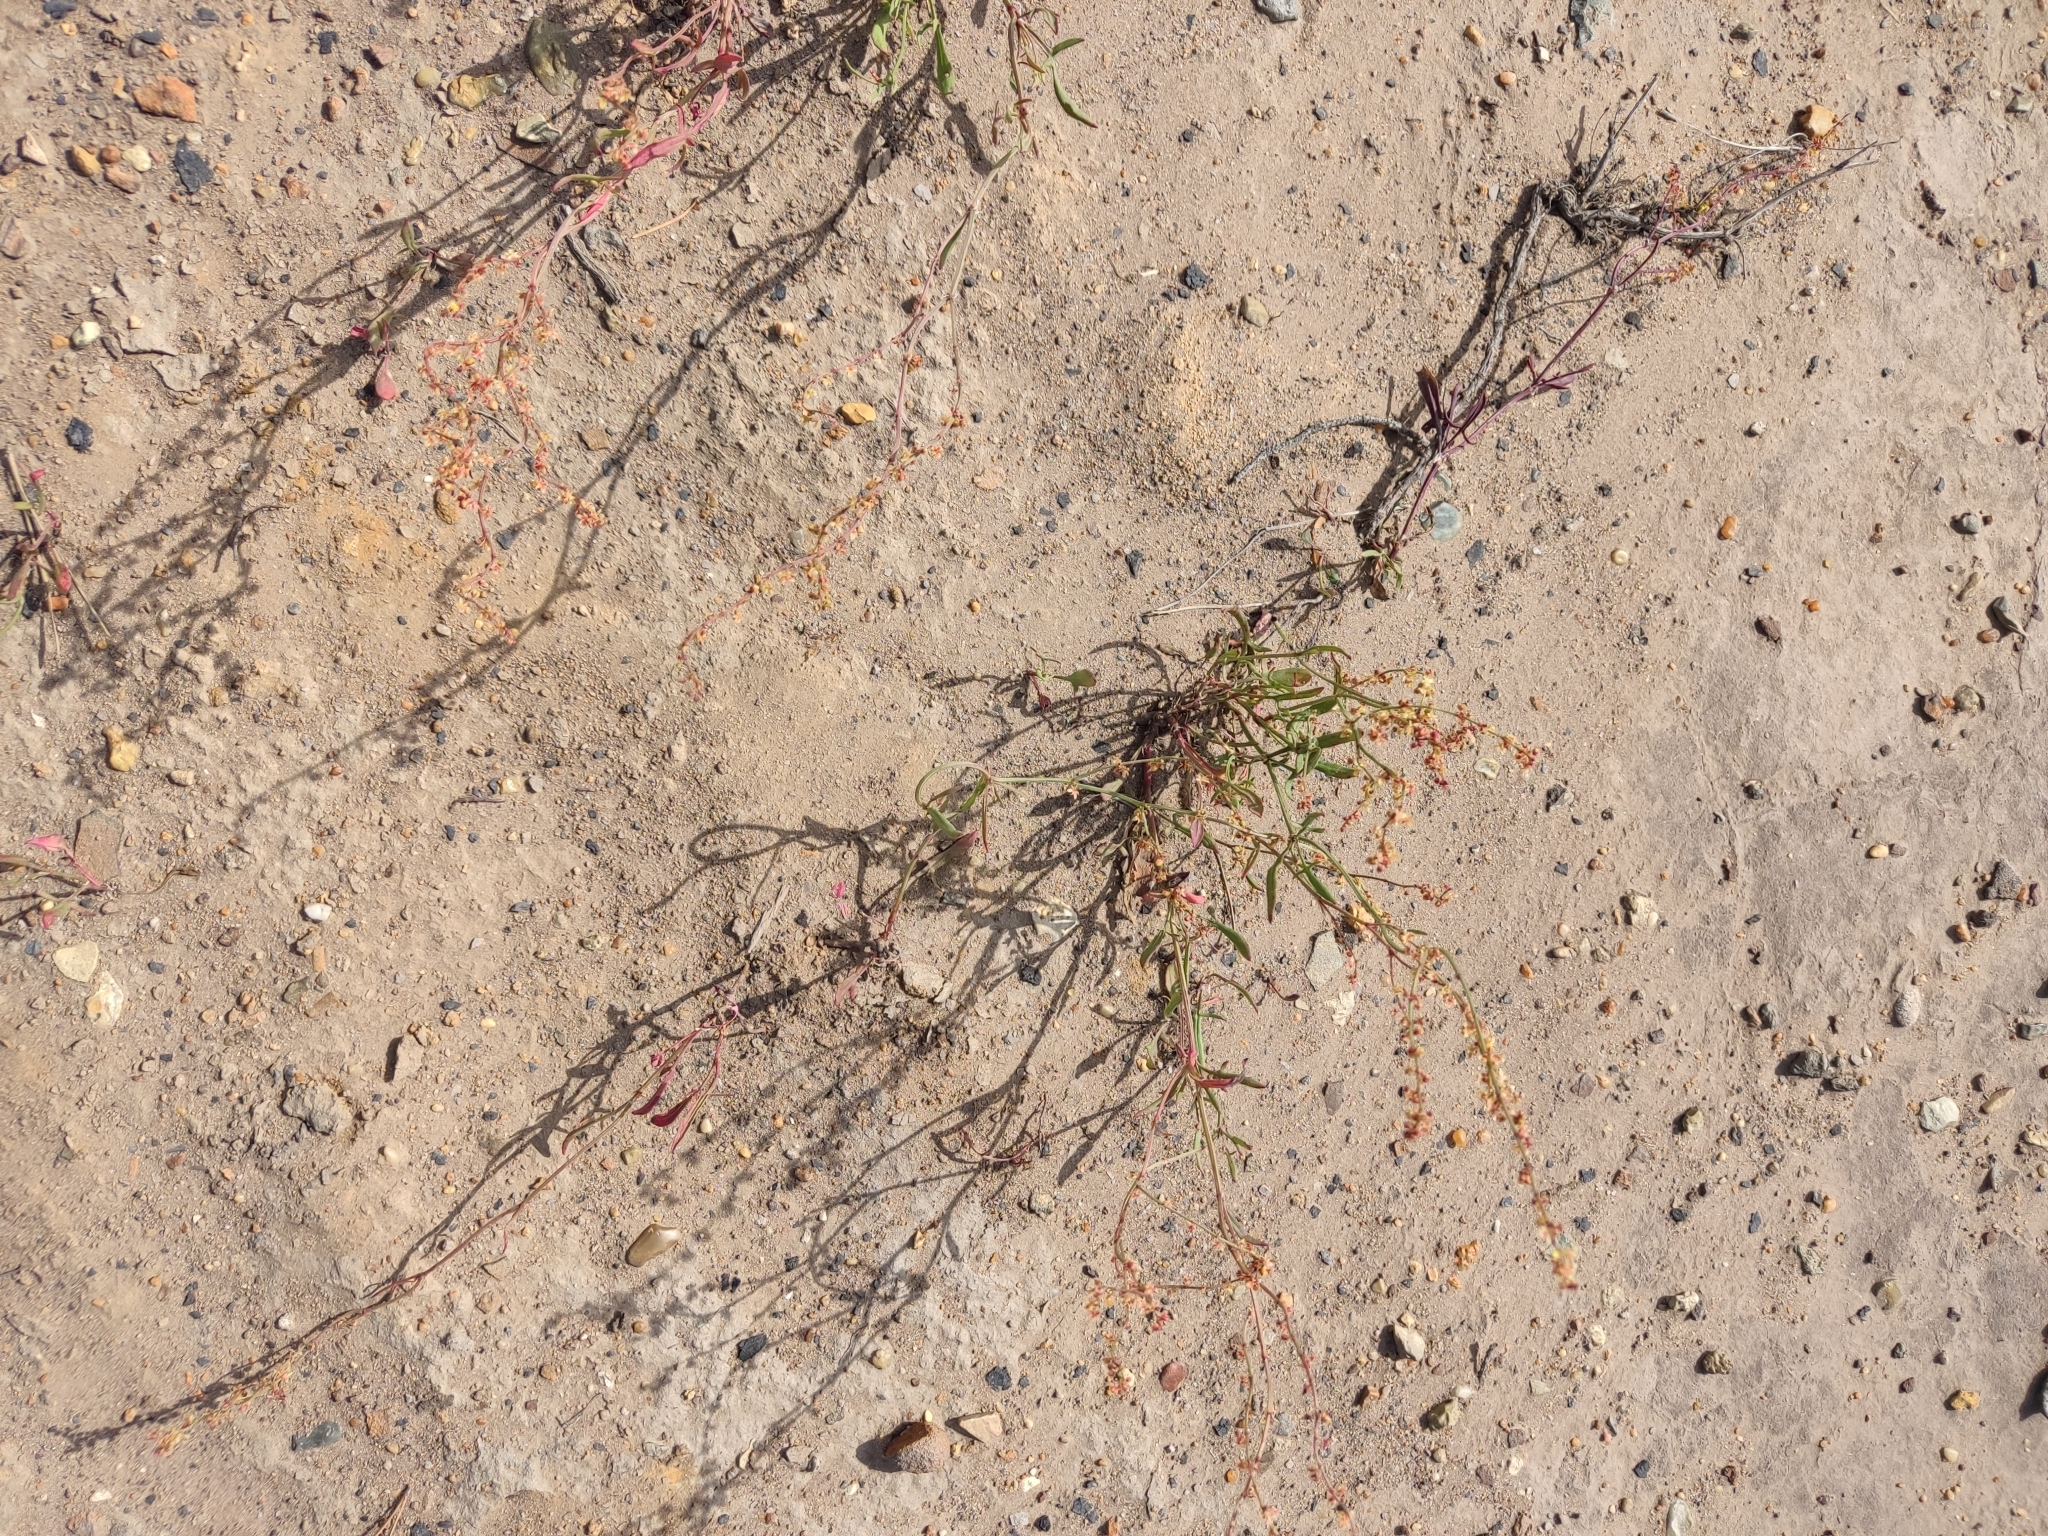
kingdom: Plantae
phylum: Tracheophyta
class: Magnoliopsida
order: Caryophyllales
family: Polygonaceae
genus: Rumex
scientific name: Rumex acetosella
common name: Common sheep sorrel
